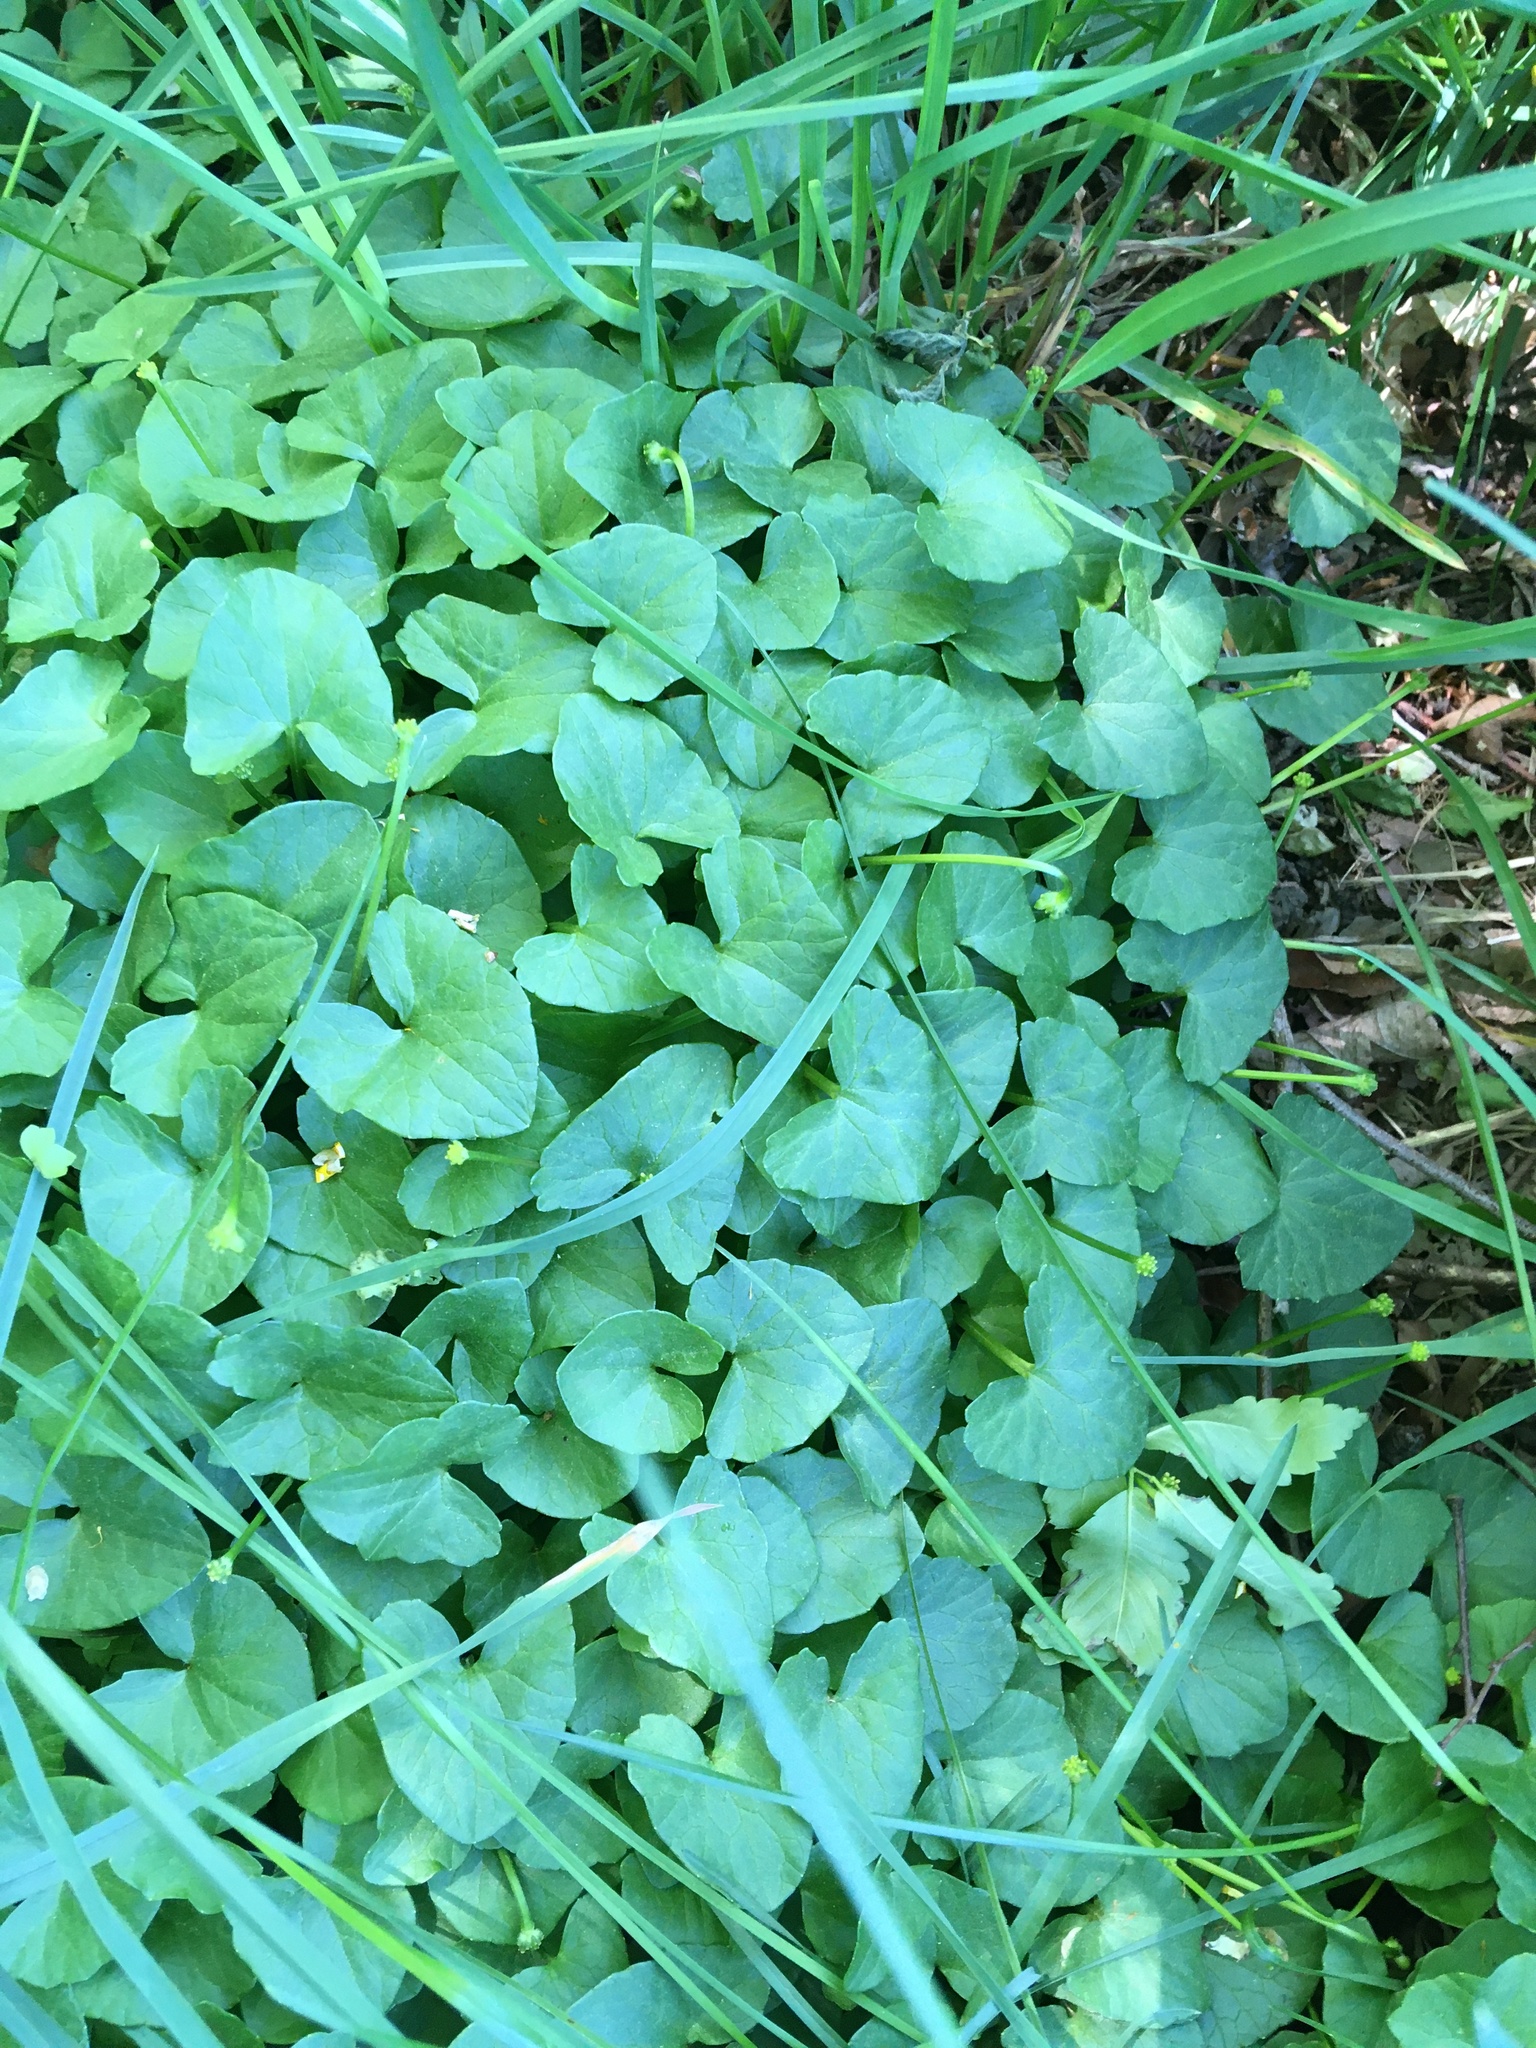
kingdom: Plantae
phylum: Tracheophyta
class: Magnoliopsida
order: Ranunculales
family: Ranunculaceae
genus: Ficaria
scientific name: Ficaria verna
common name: Lesser celandine
